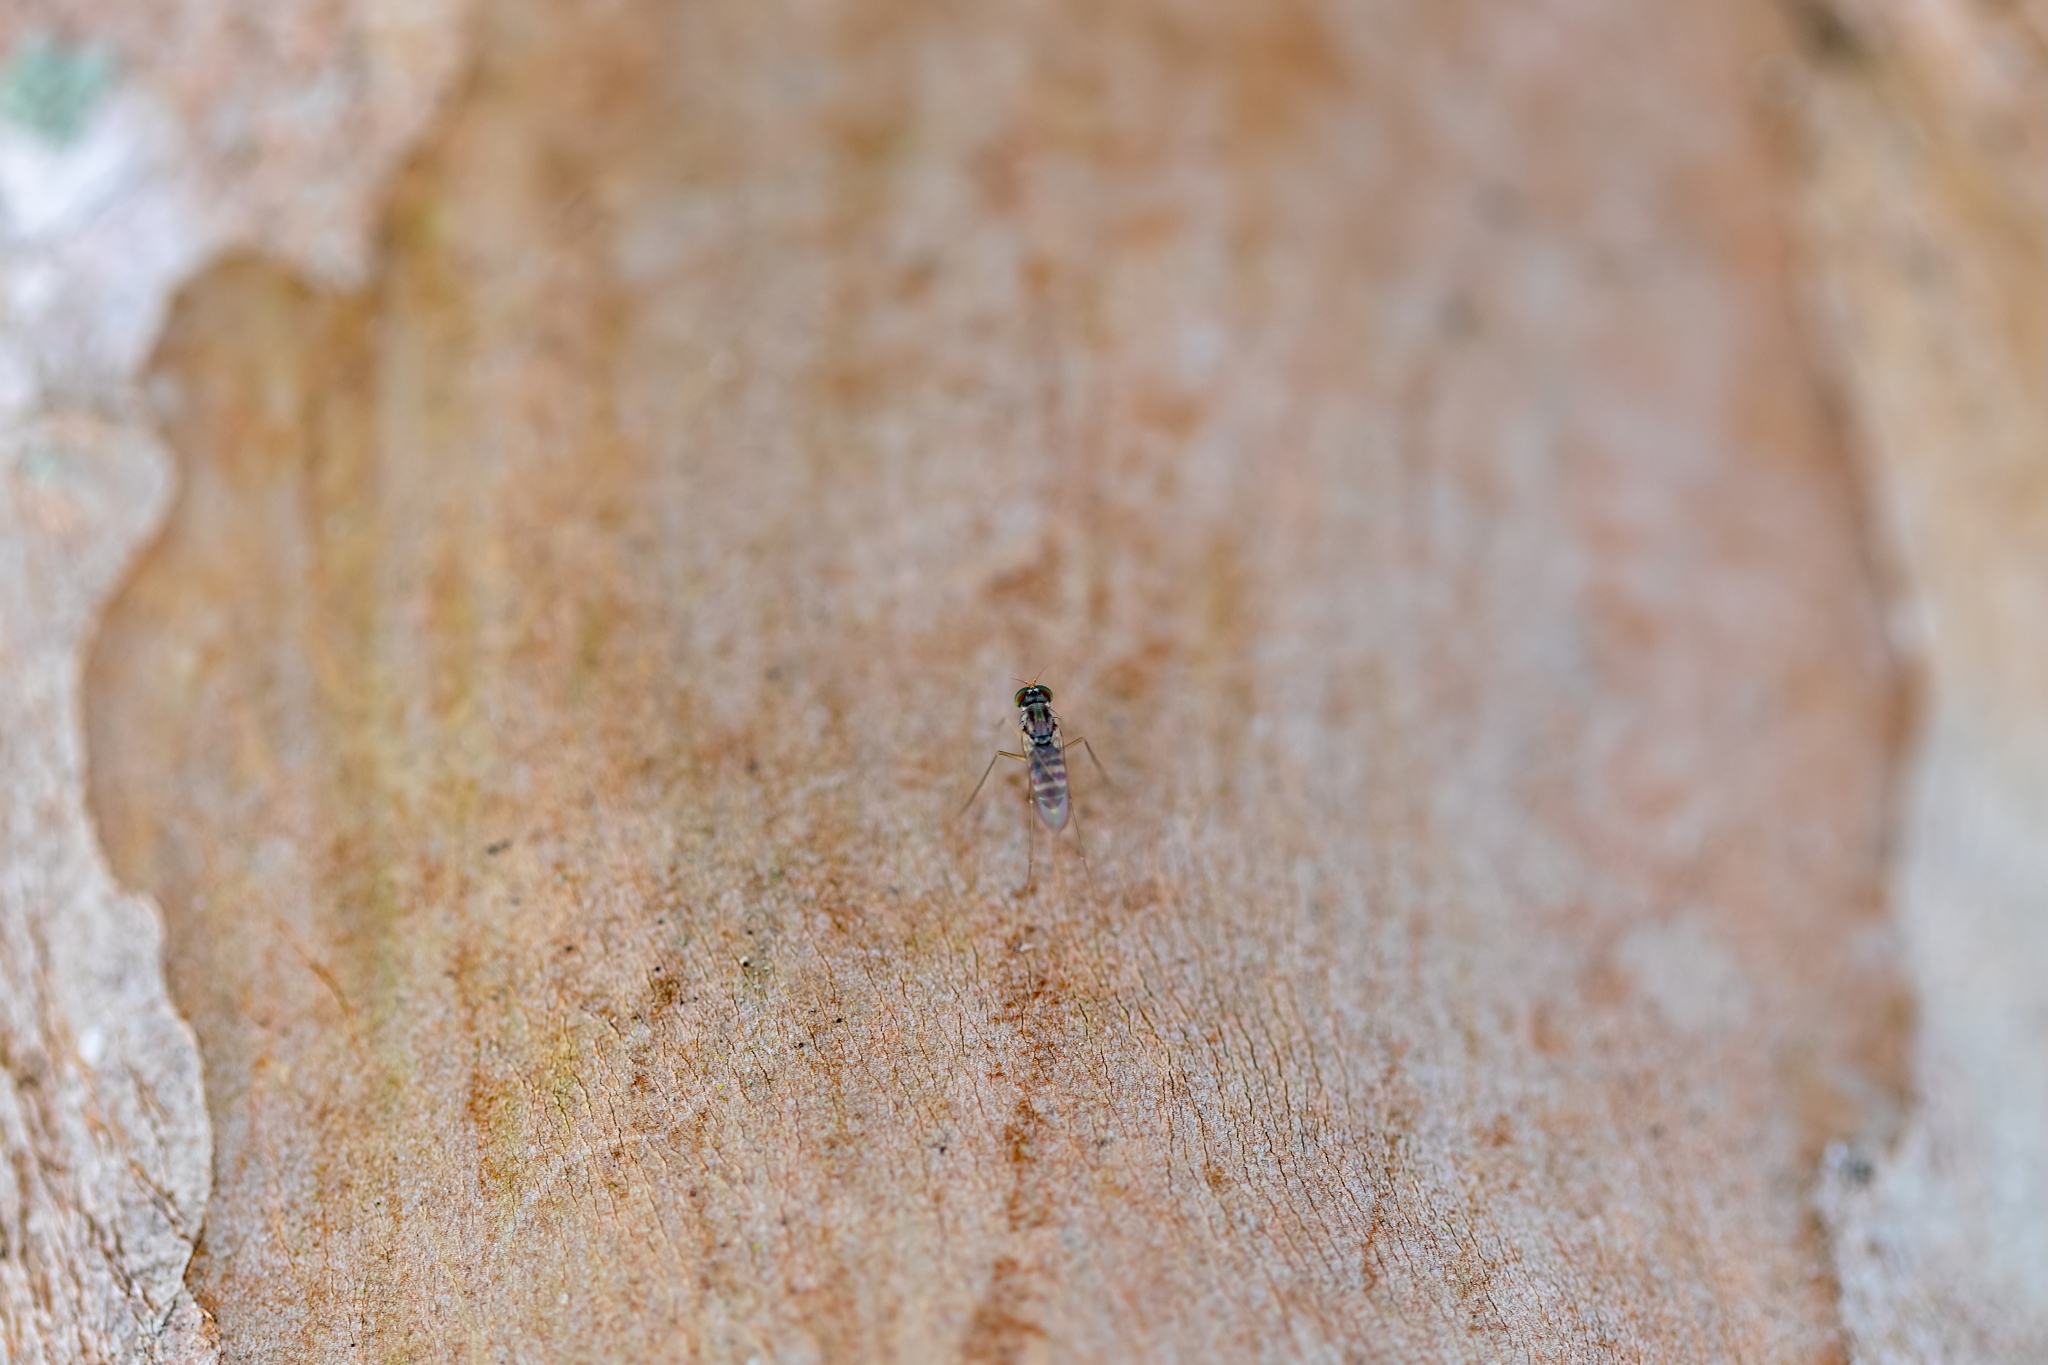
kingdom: Animalia
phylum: Arthropoda
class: Insecta
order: Diptera
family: Dolichopodidae
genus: Dactylomyia
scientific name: Dactylomyia lateralis
